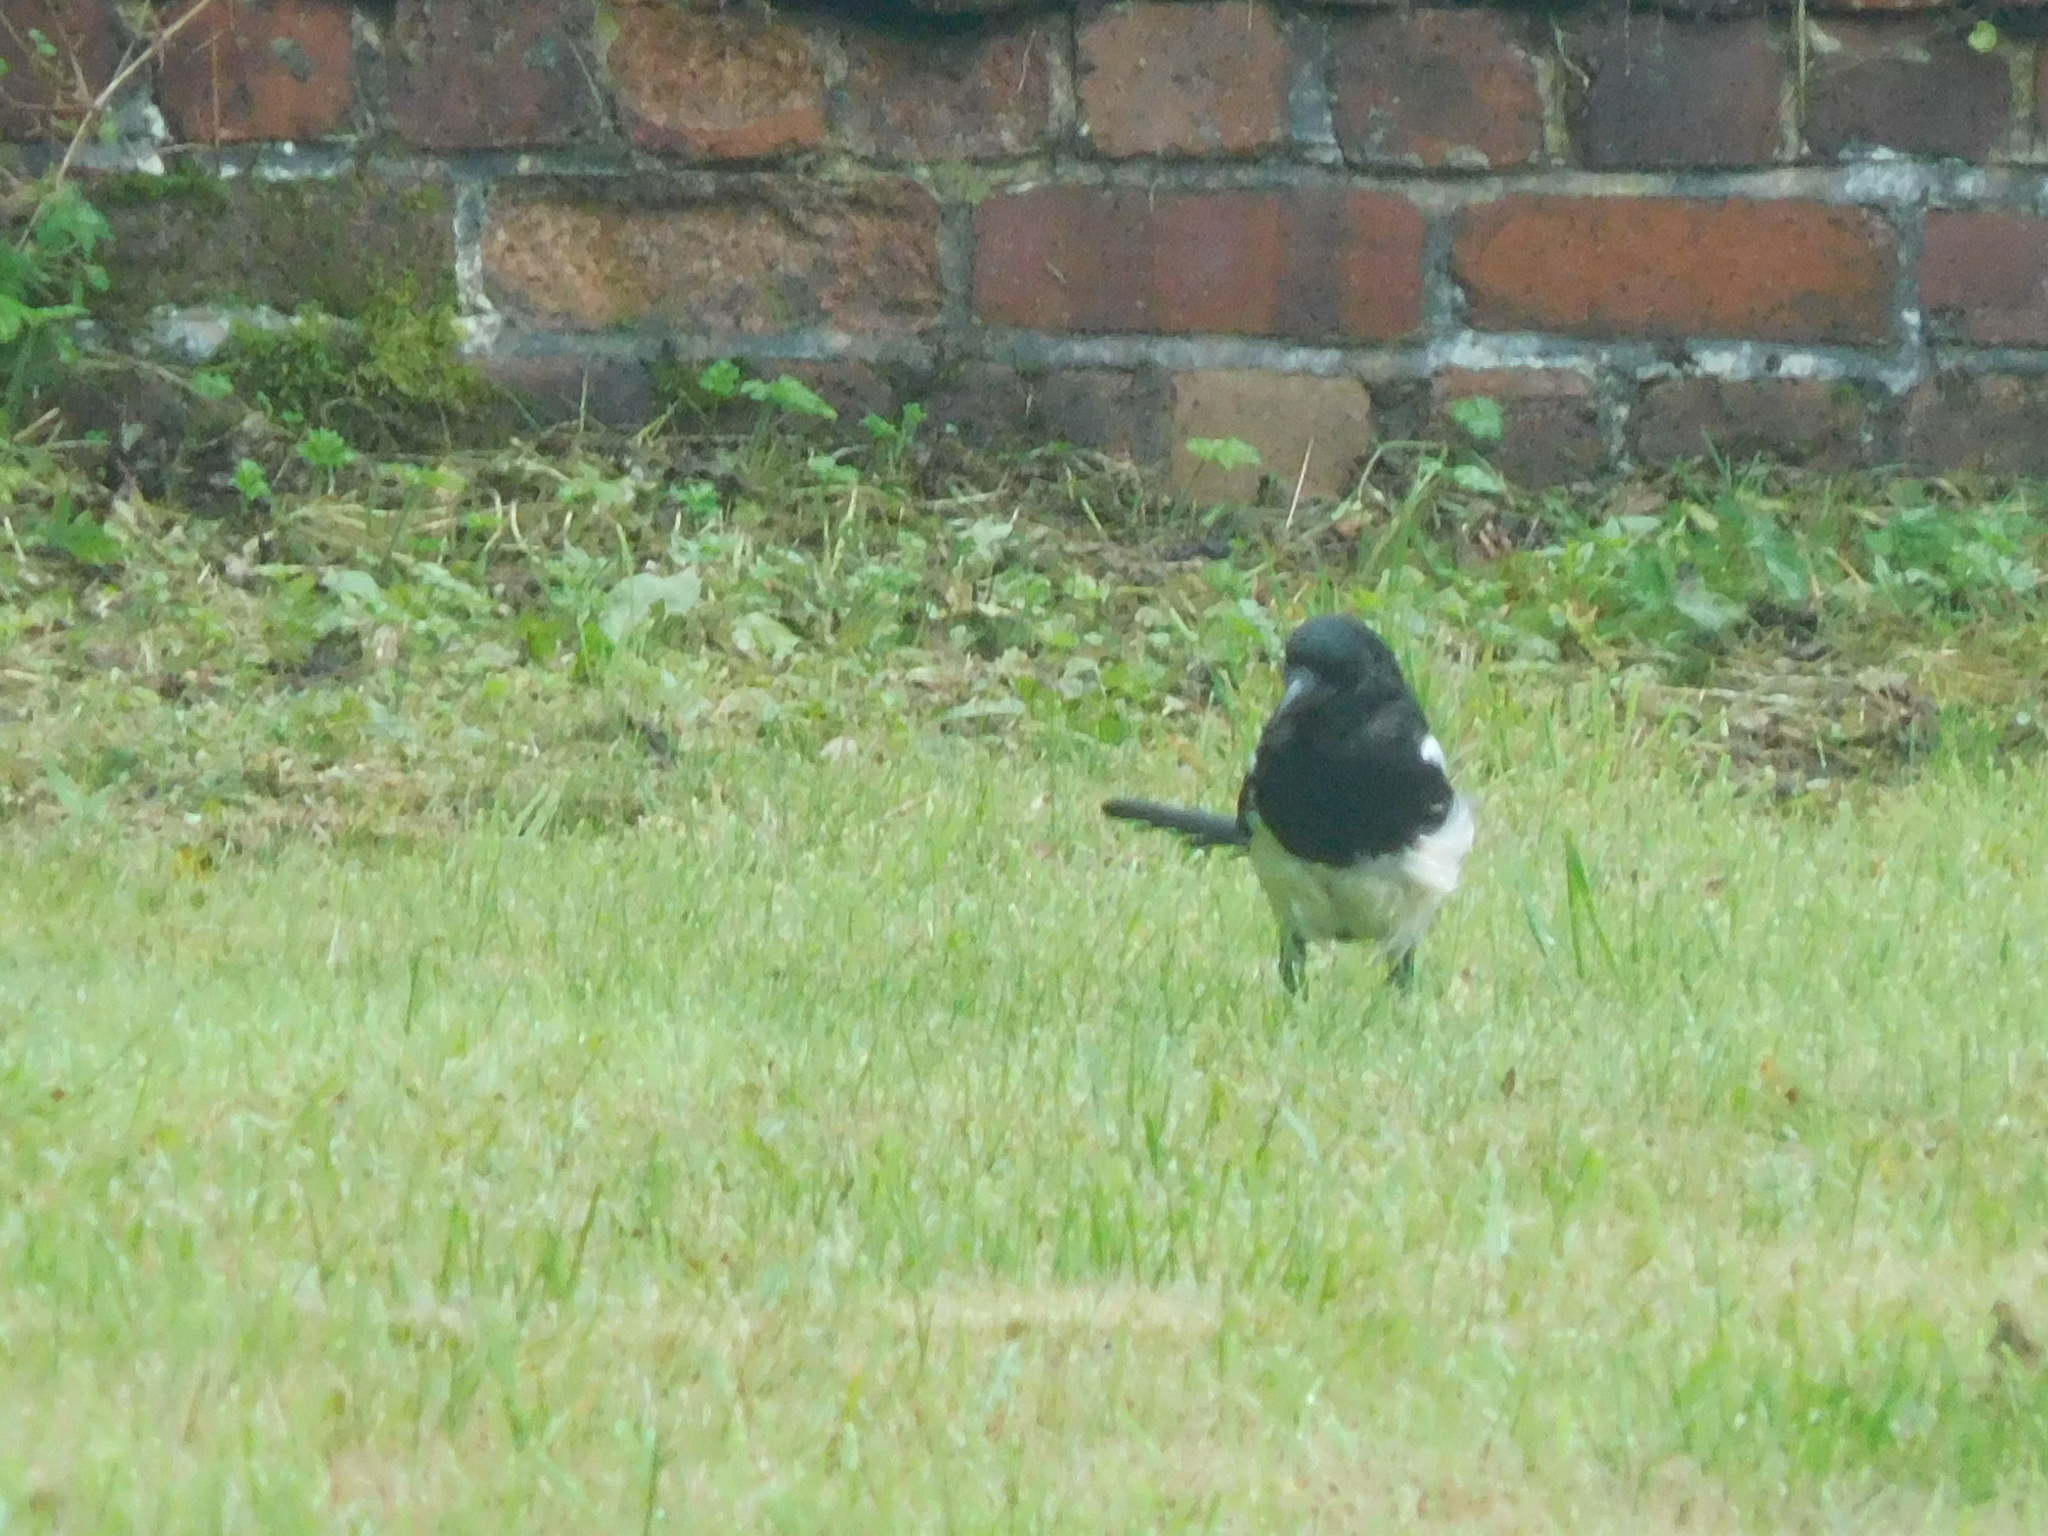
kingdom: Animalia
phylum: Chordata
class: Aves
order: Passeriformes
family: Corvidae
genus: Pica
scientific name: Pica pica
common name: Eurasian magpie
